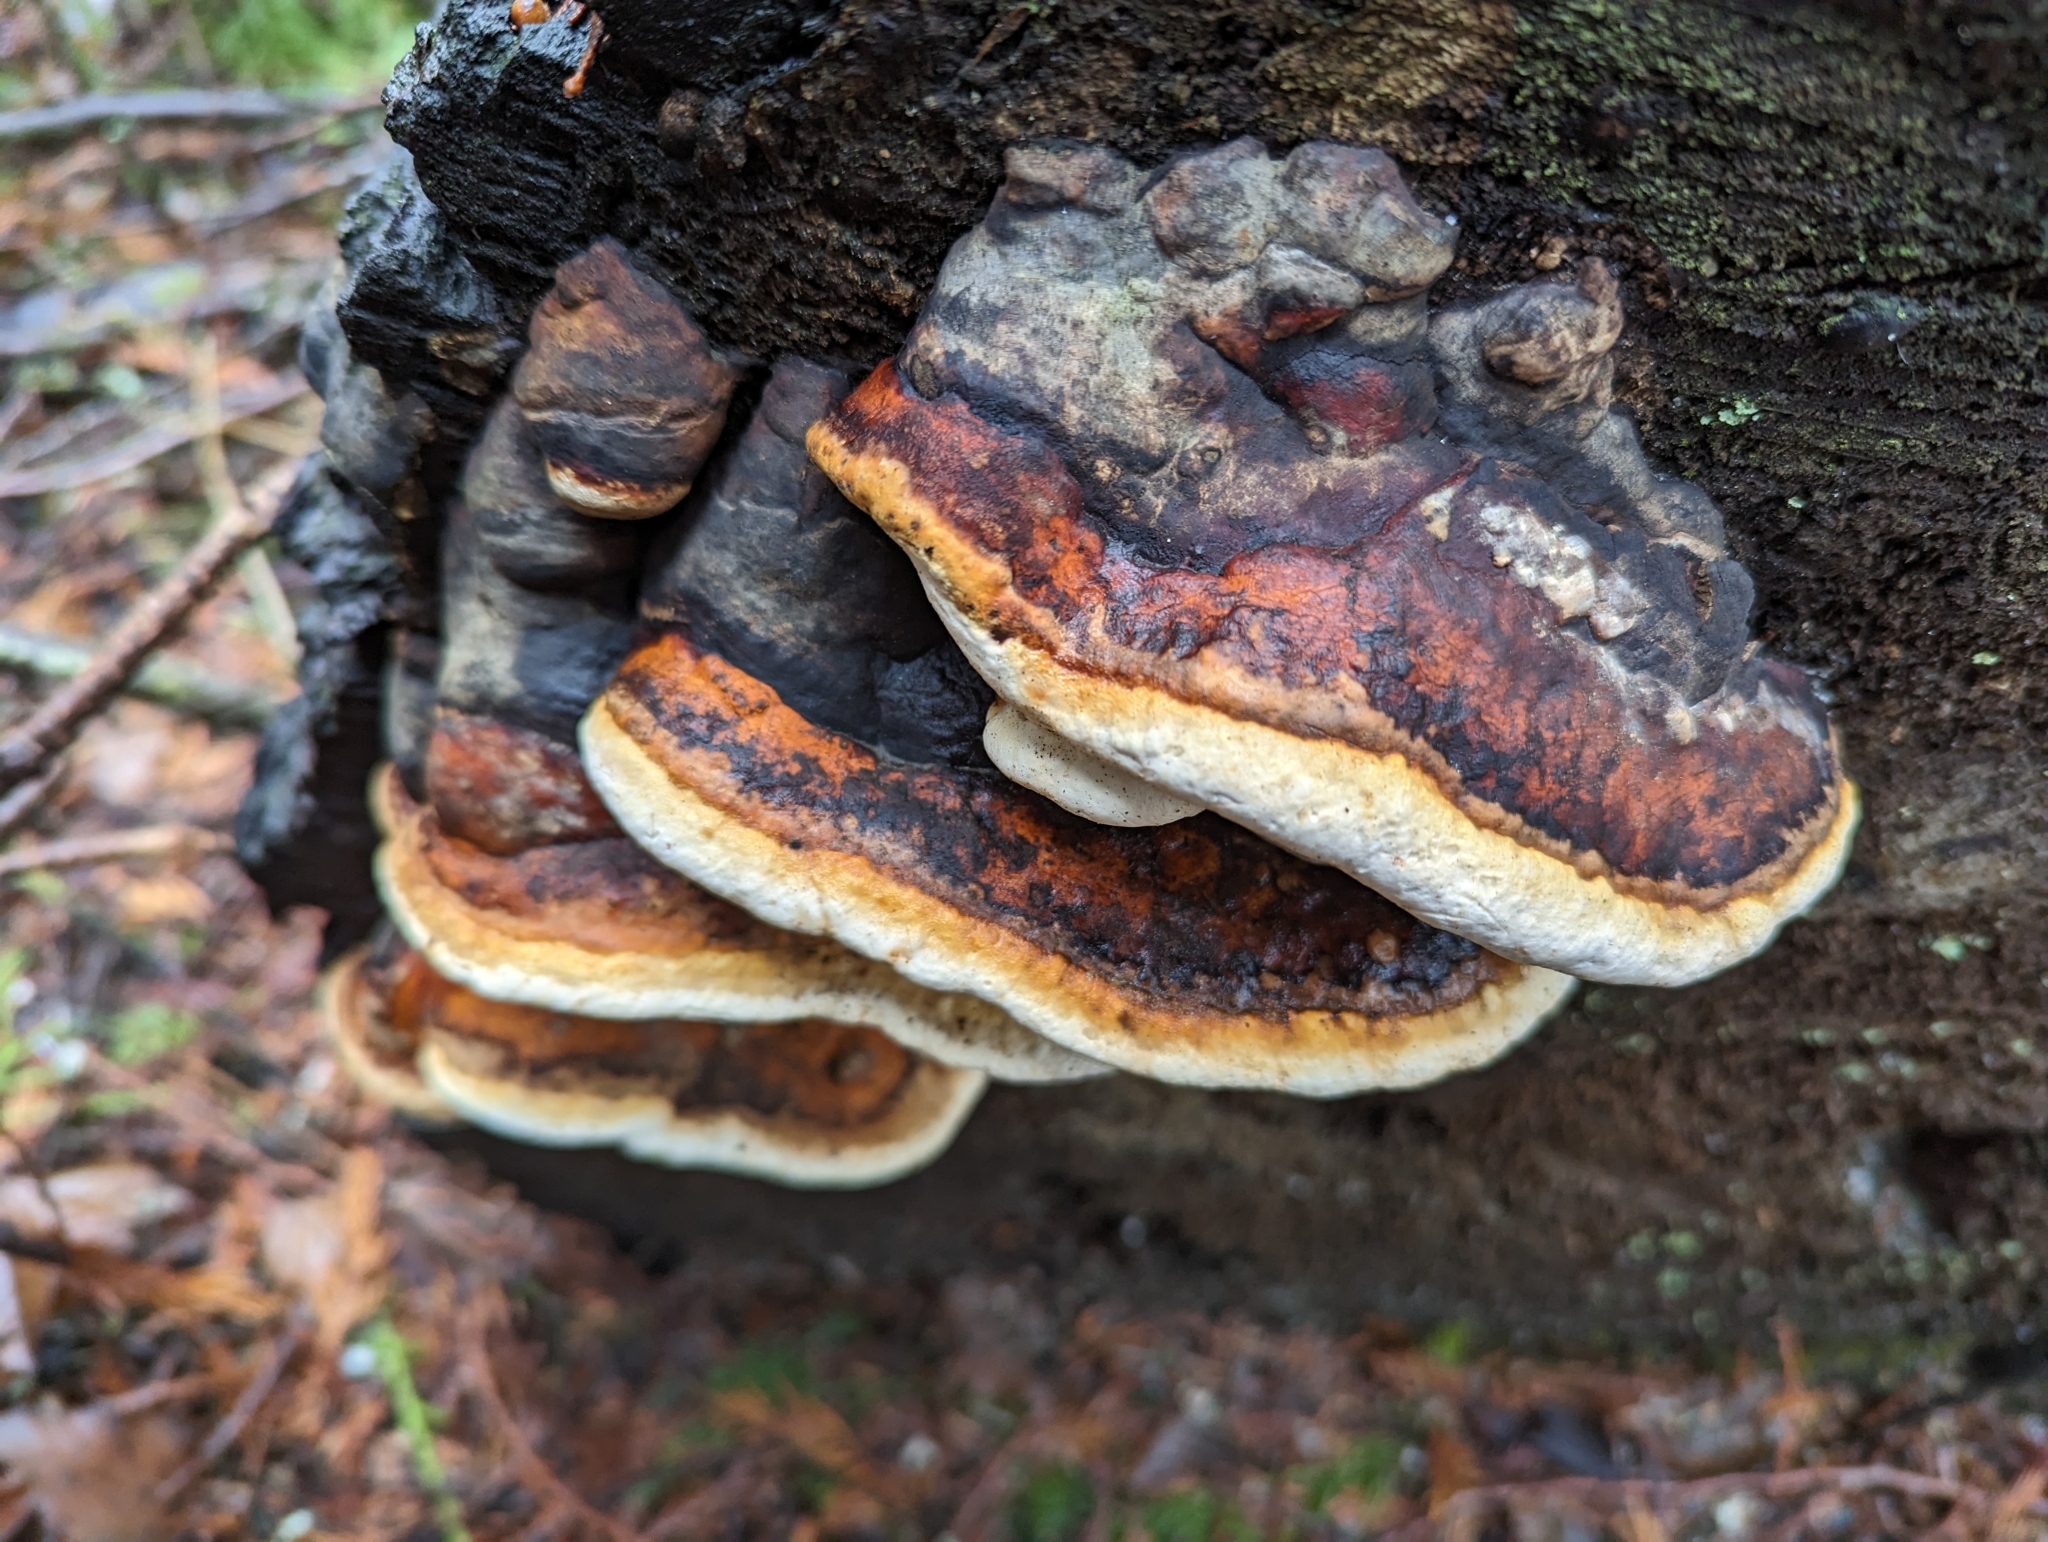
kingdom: Fungi
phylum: Basidiomycota
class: Agaricomycetes
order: Polyporales
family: Fomitopsidaceae
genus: Fomitopsis
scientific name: Fomitopsis mounceae
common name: Northern red belt
